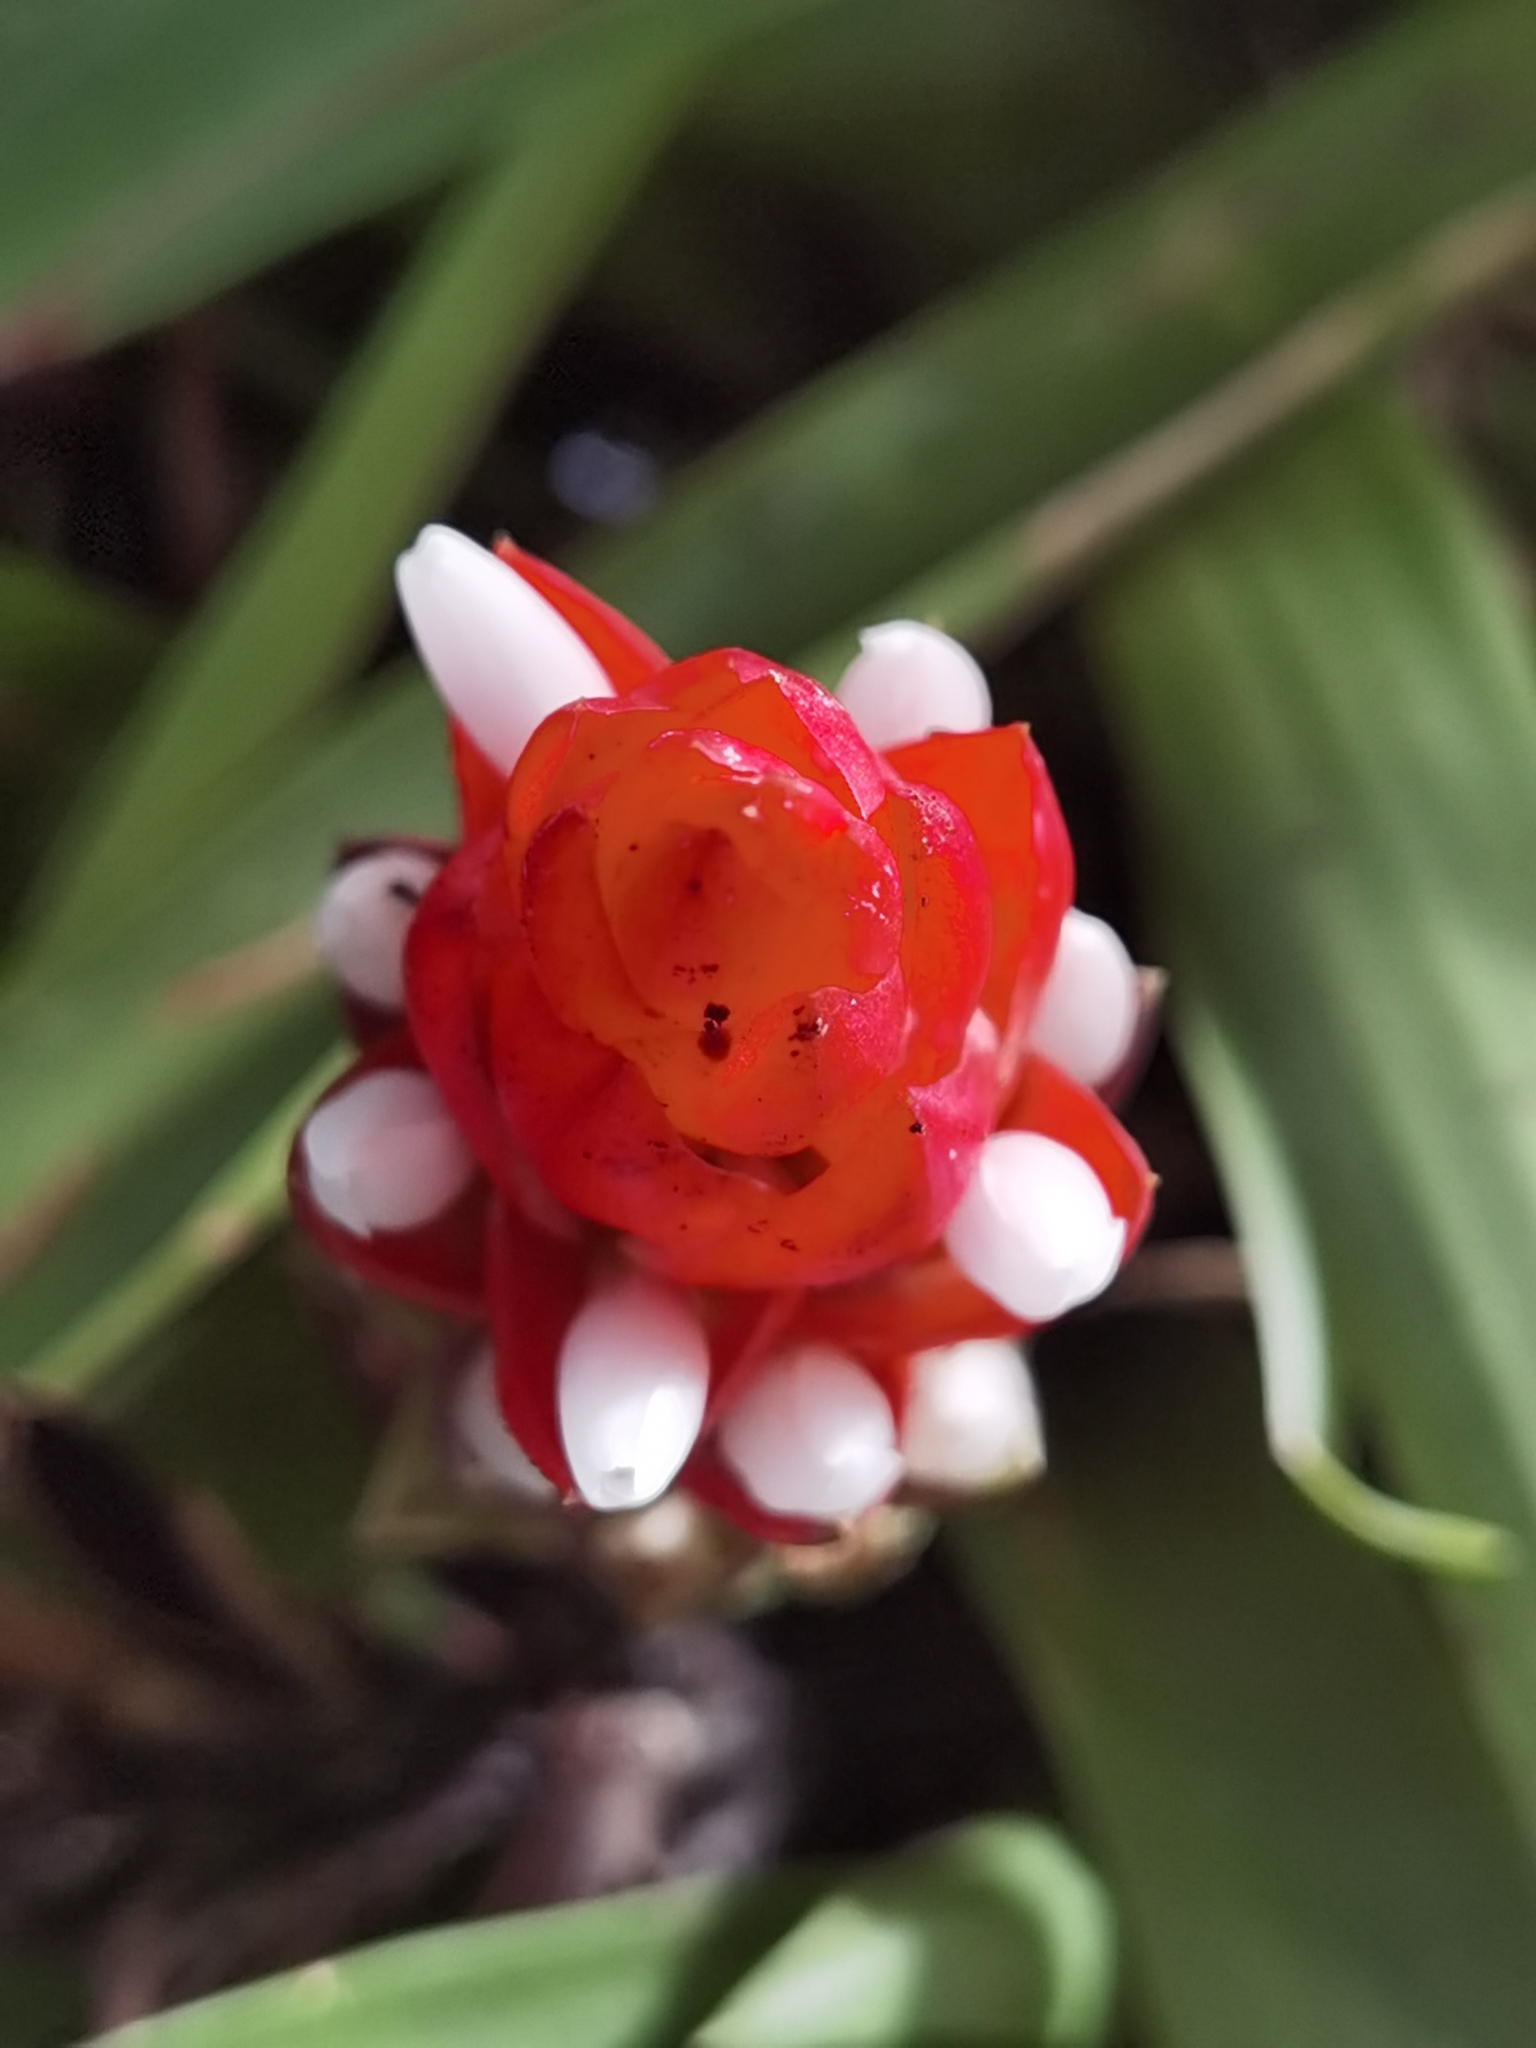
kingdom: Plantae
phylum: Tracheophyta
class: Liliopsida
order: Poales
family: Bromeliaceae
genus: Guzmania
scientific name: Guzmania monostachia
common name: West indian tufted airplant
